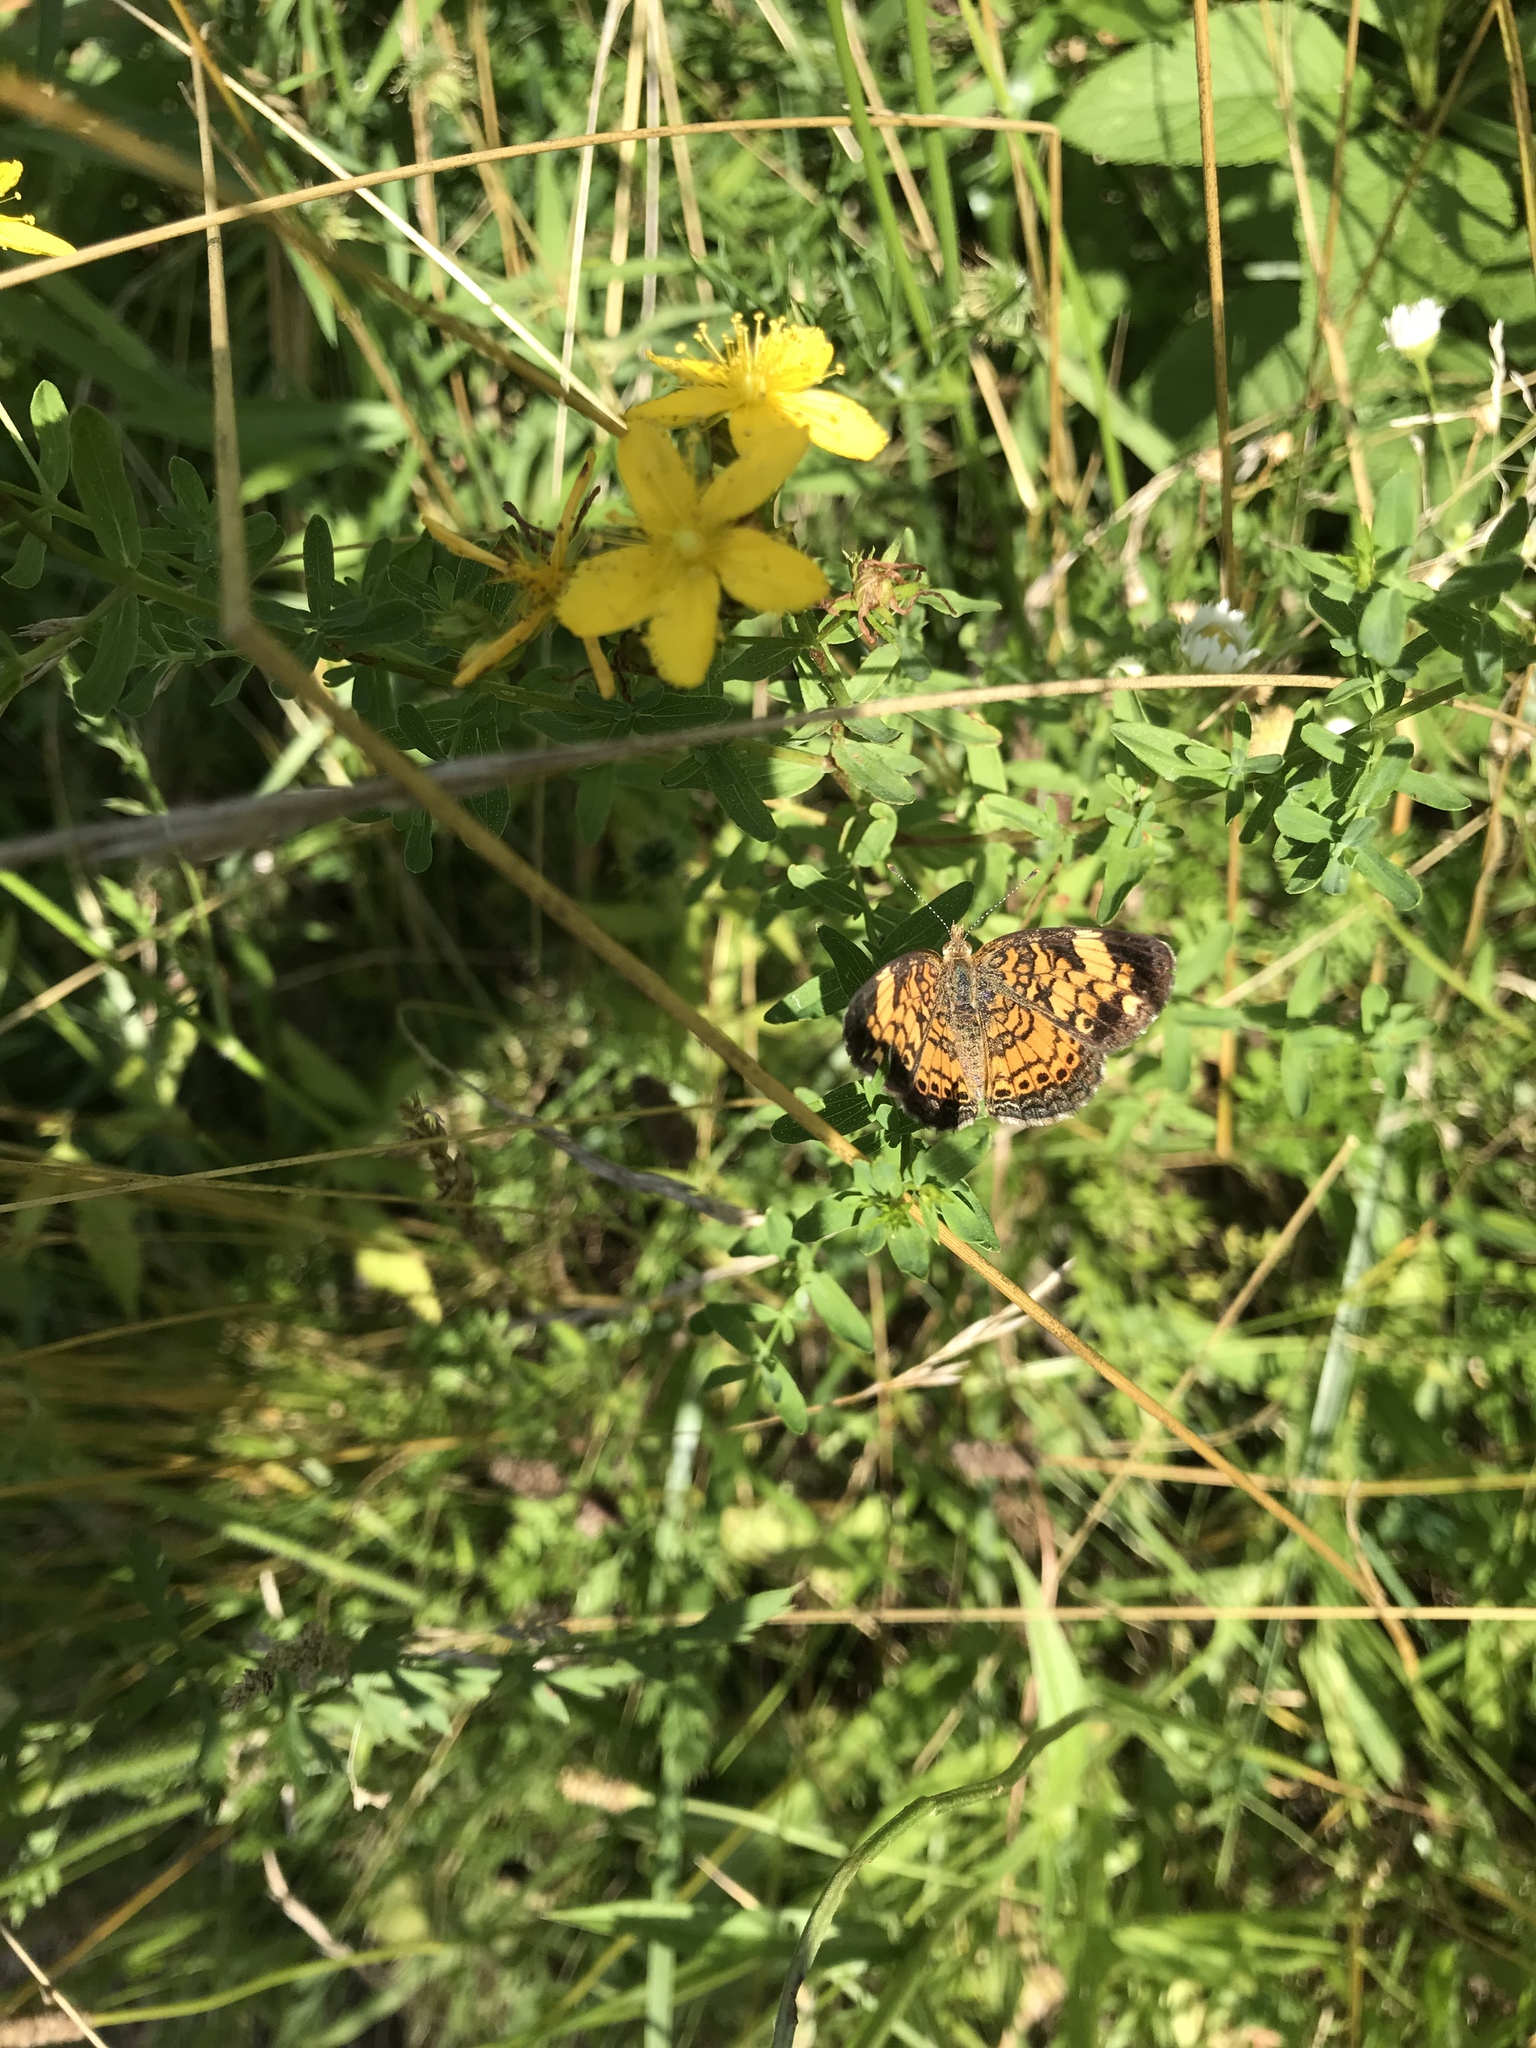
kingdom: Animalia
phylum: Arthropoda
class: Insecta
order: Lepidoptera
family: Nymphalidae
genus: Phyciodes
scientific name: Phyciodes tharos
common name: Pearl crescent
